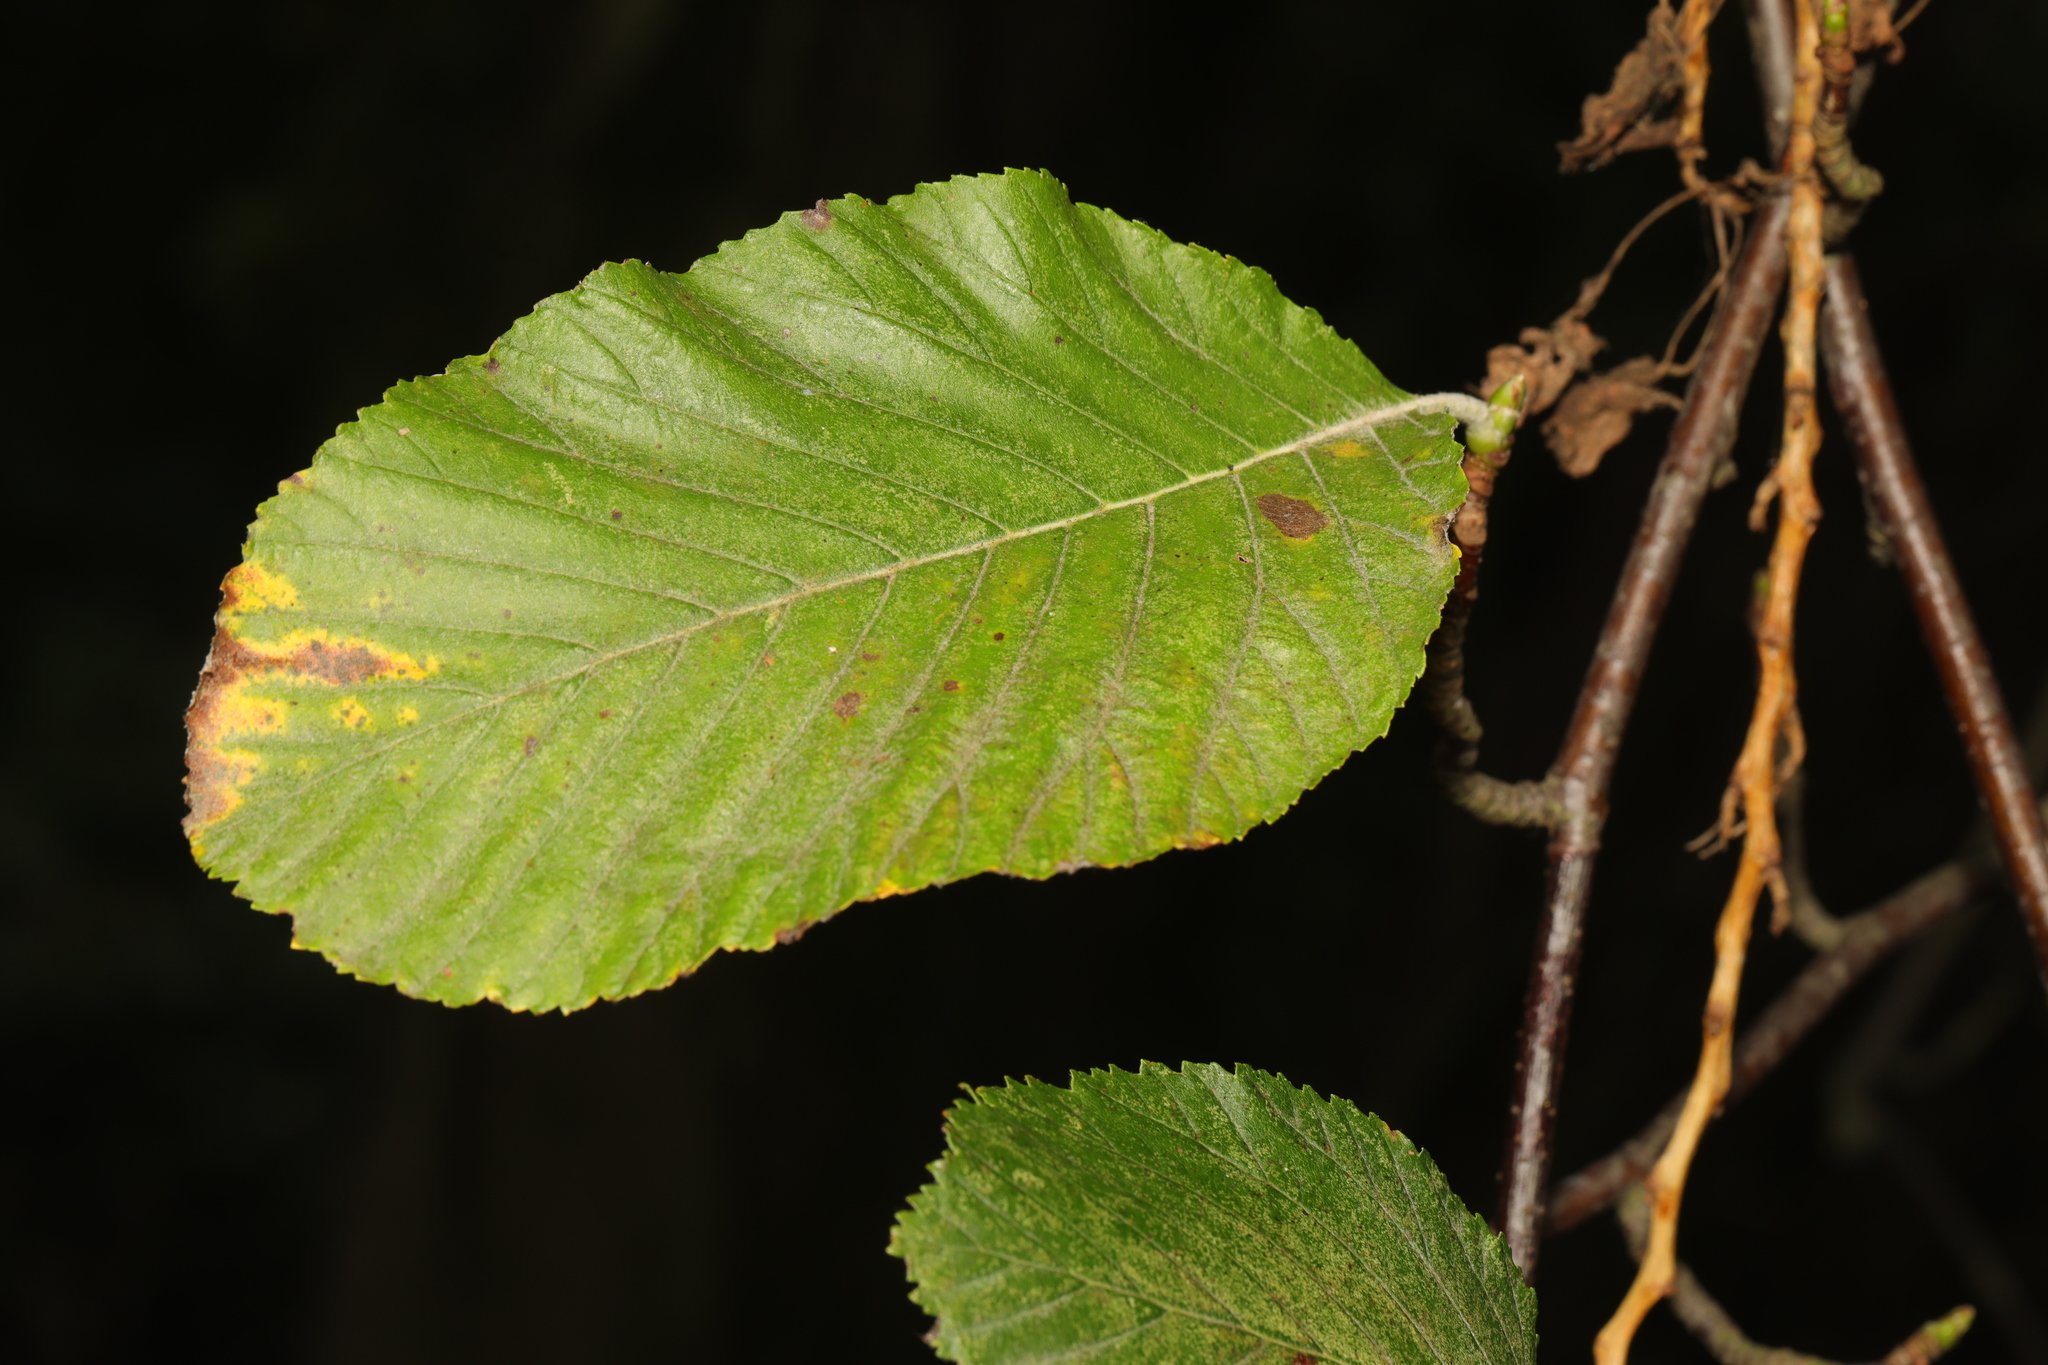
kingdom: Plantae
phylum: Tracheophyta
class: Magnoliopsida
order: Rosales
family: Rosaceae
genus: Aria
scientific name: Aria edulis
